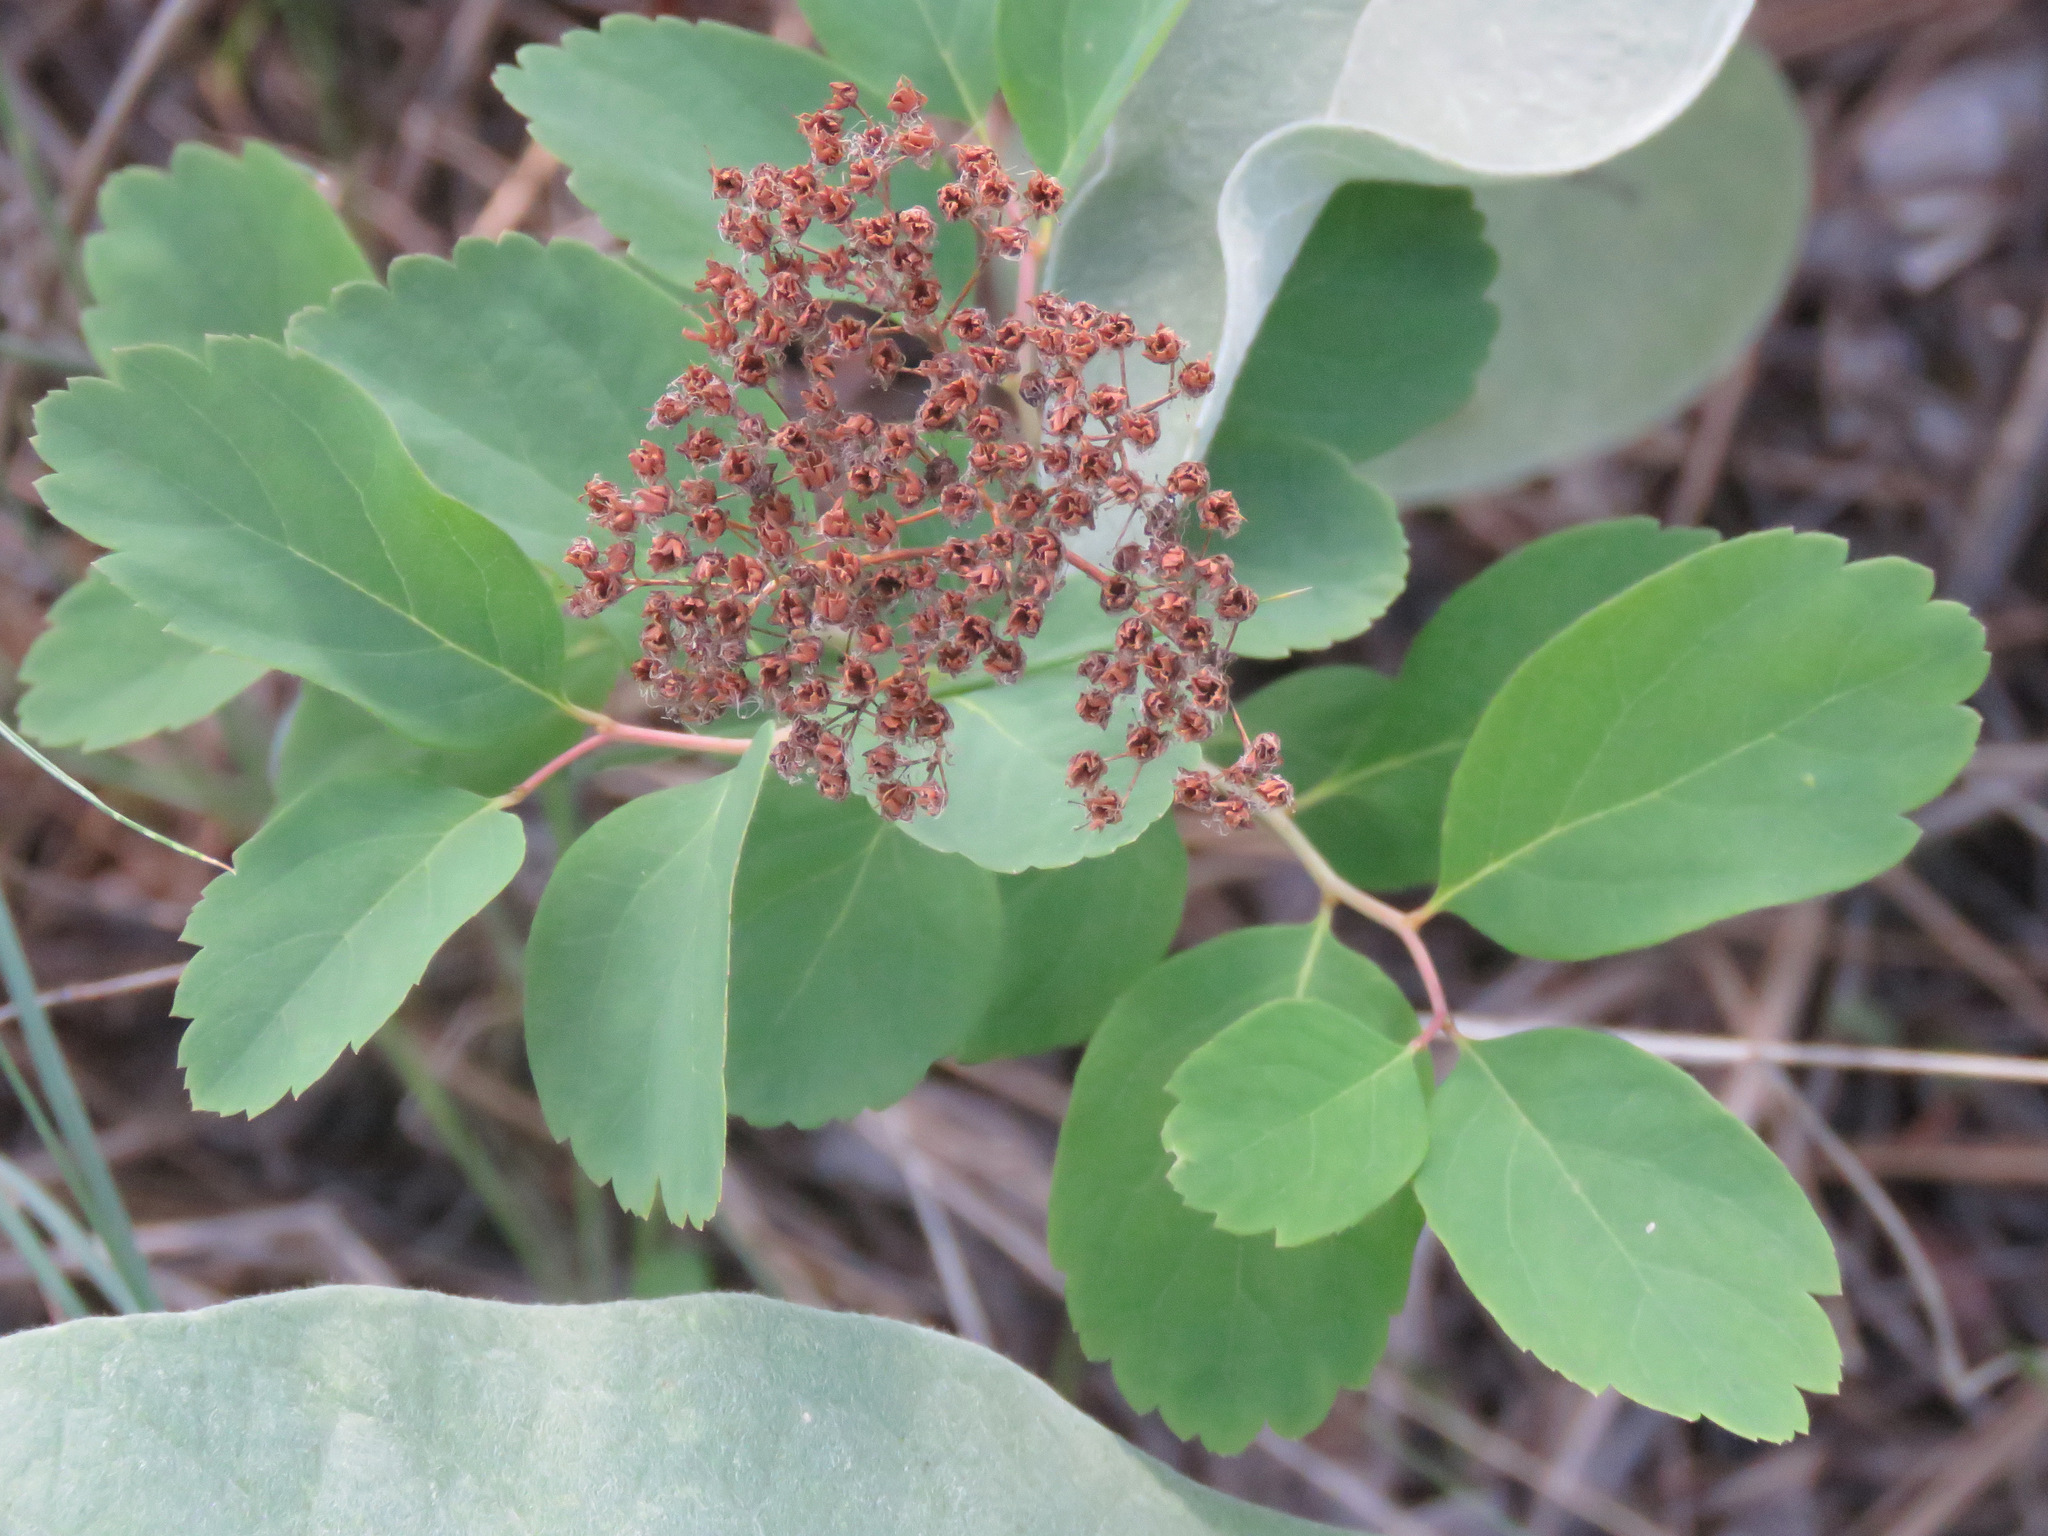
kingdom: Plantae
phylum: Tracheophyta
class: Magnoliopsida
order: Rosales
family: Rosaceae
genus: Spiraea
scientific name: Spiraea lucida
